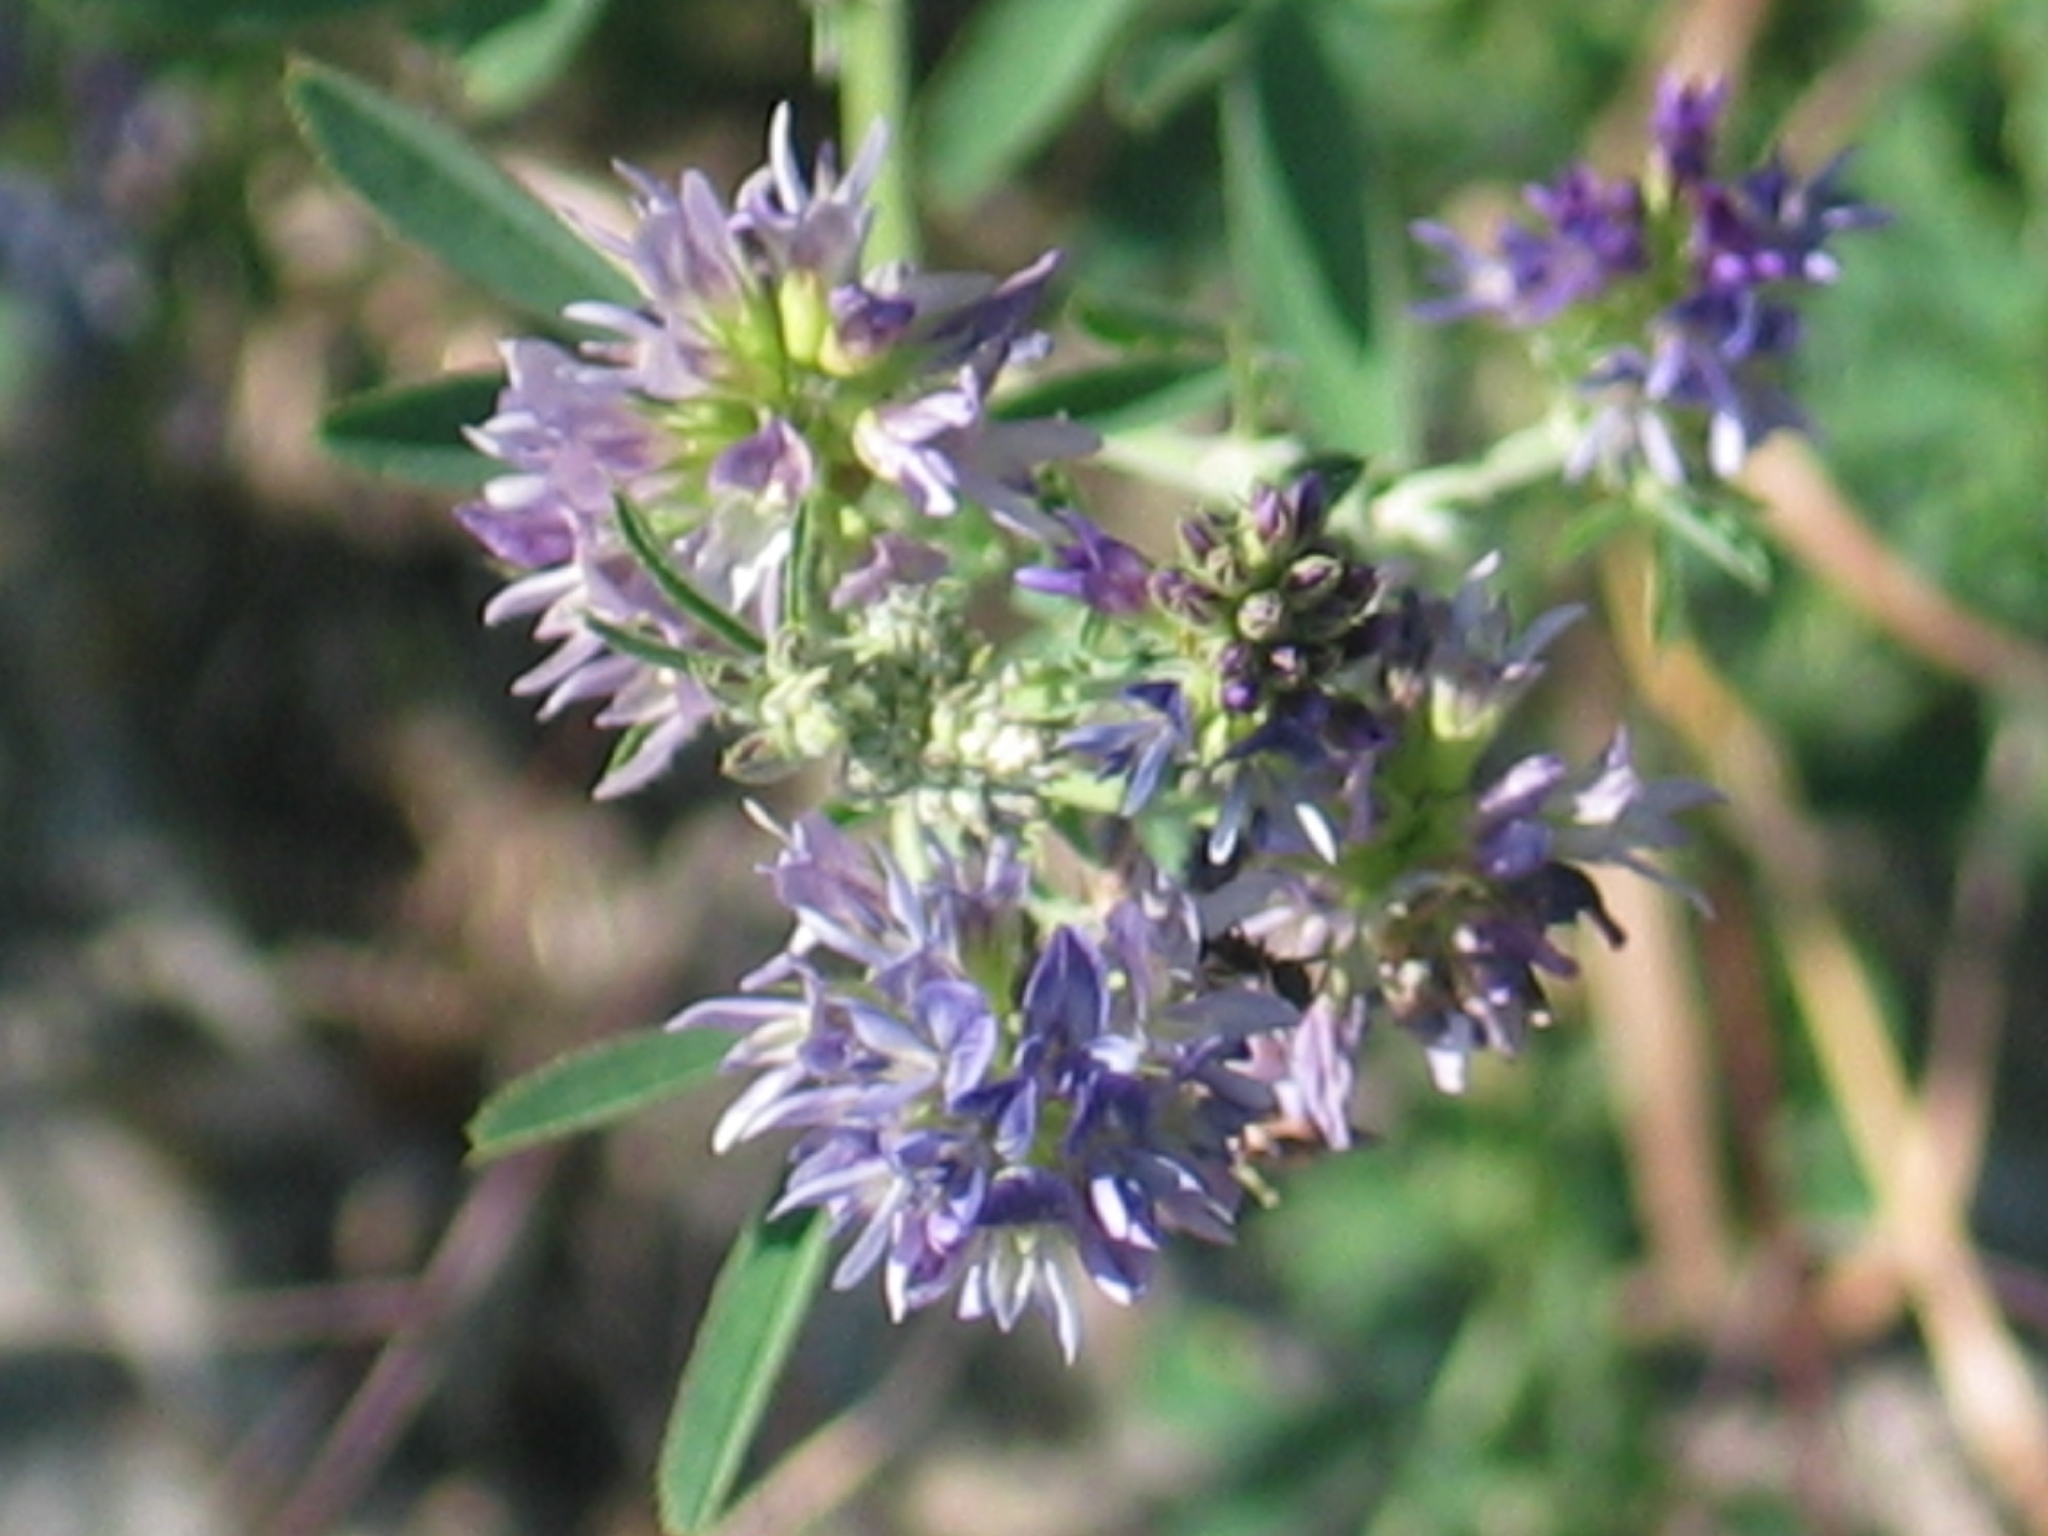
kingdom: Plantae
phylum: Tracheophyta
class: Magnoliopsida
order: Fabales
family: Fabaceae
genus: Medicago
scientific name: Medicago sativa
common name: Alfalfa
